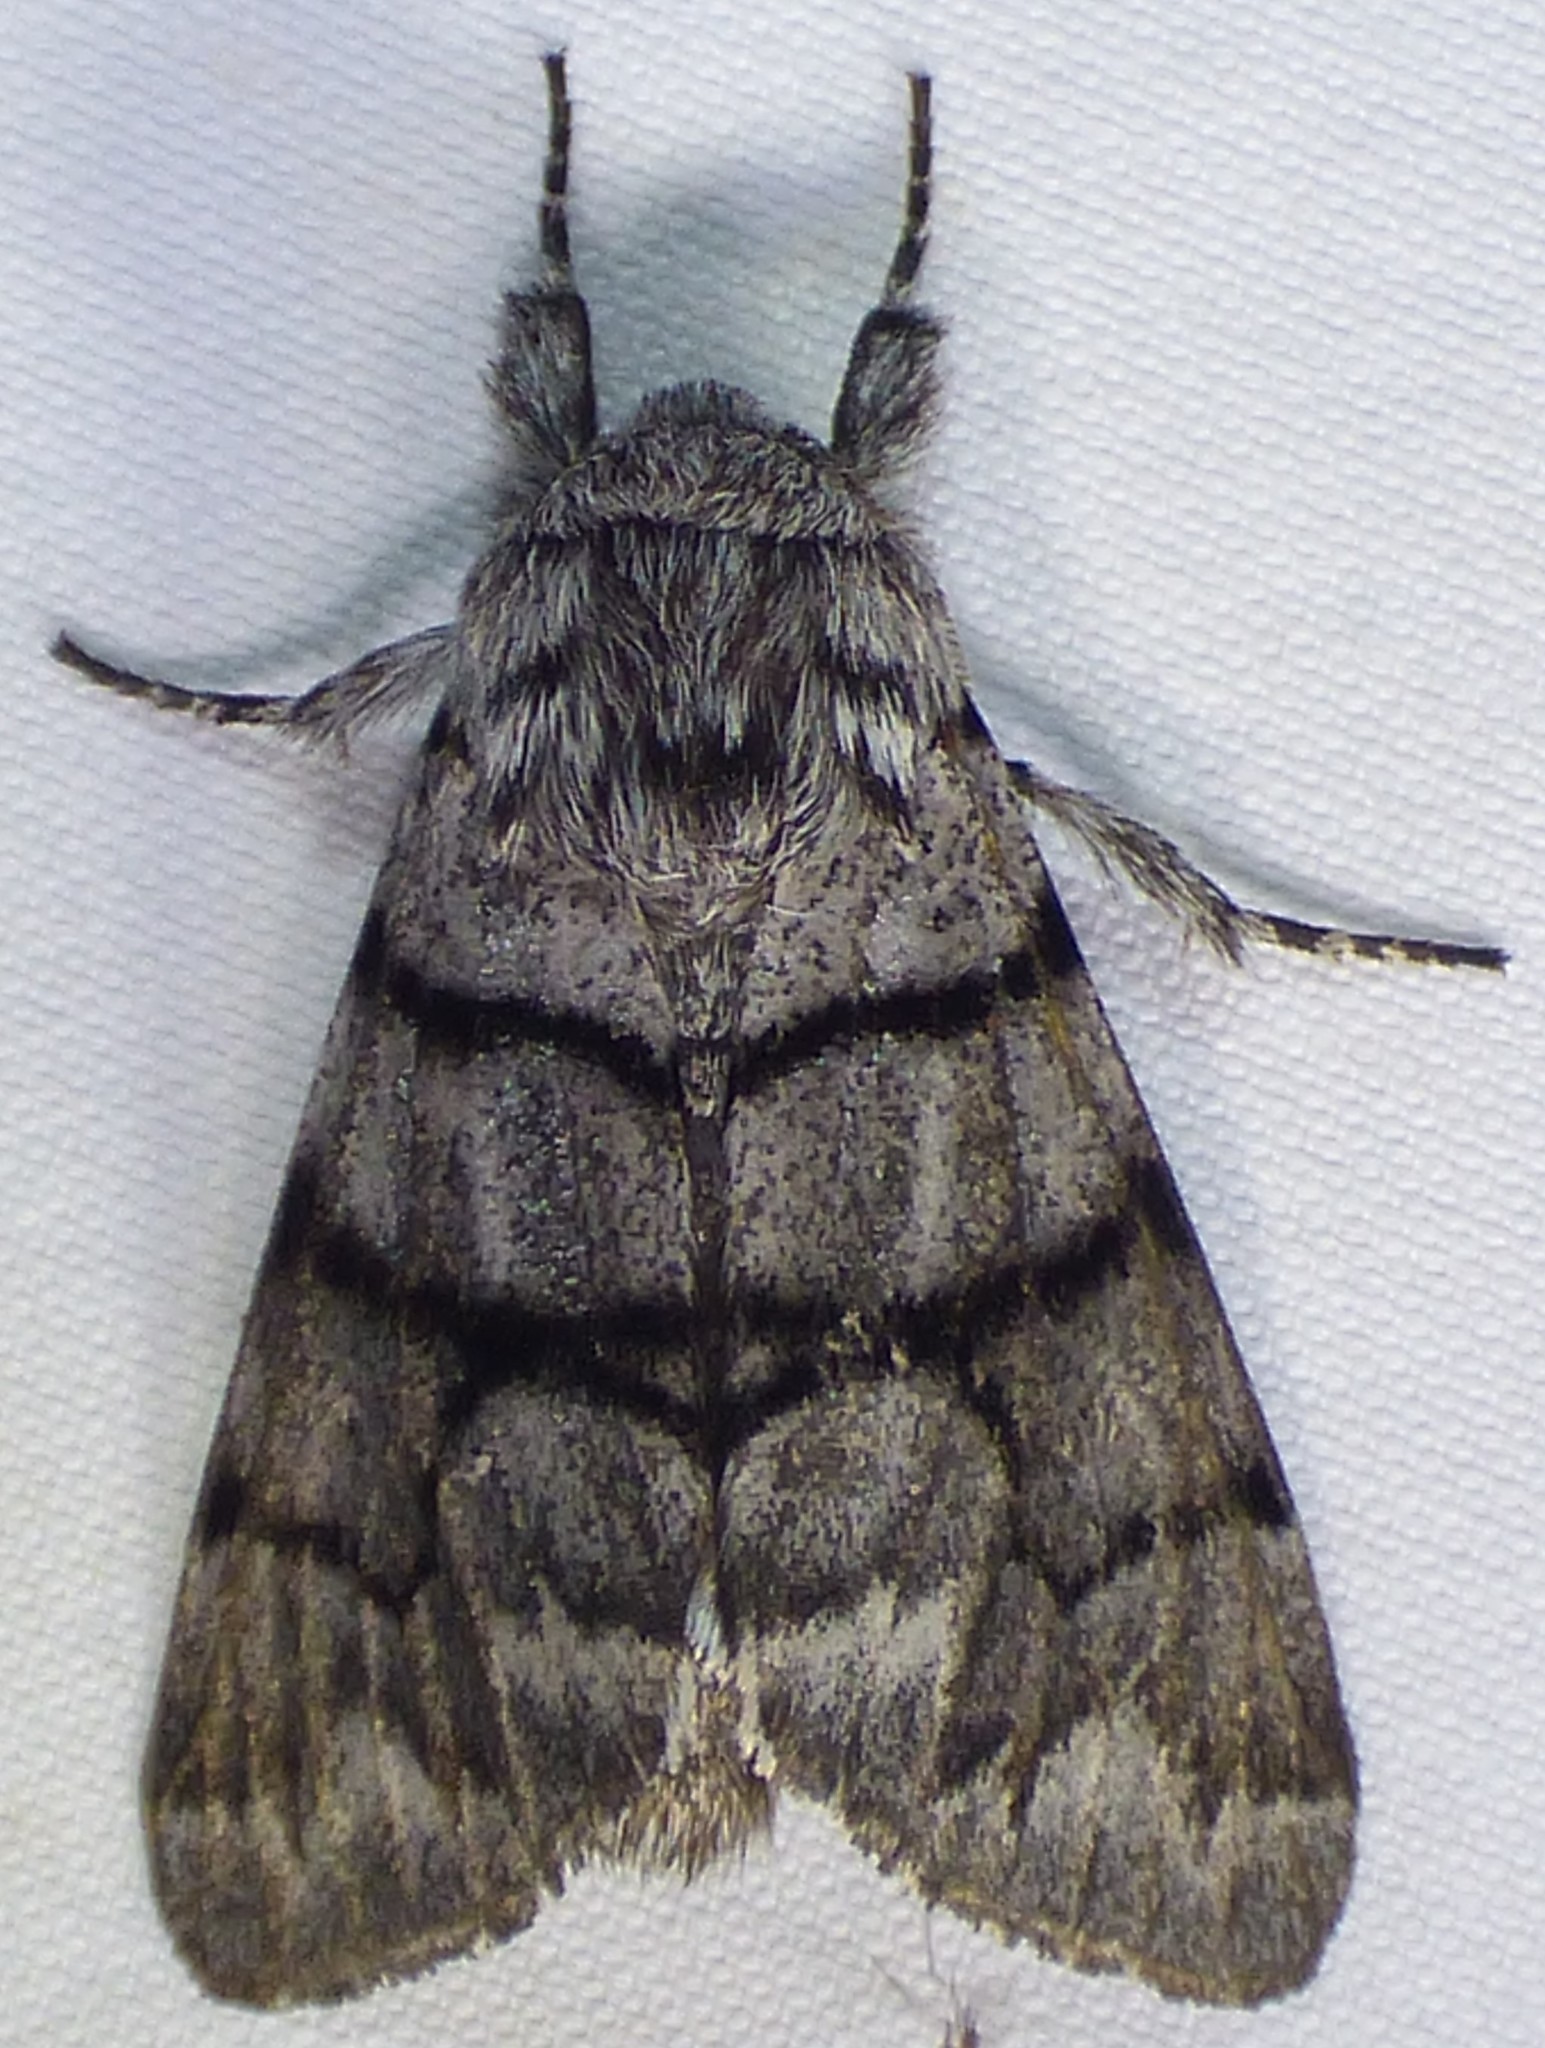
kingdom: Animalia
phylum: Arthropoda
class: Insecta
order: Lepidoptera
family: Noctuidae
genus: Panthea
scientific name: Panthea furcilla
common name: Eastern panthea moth
